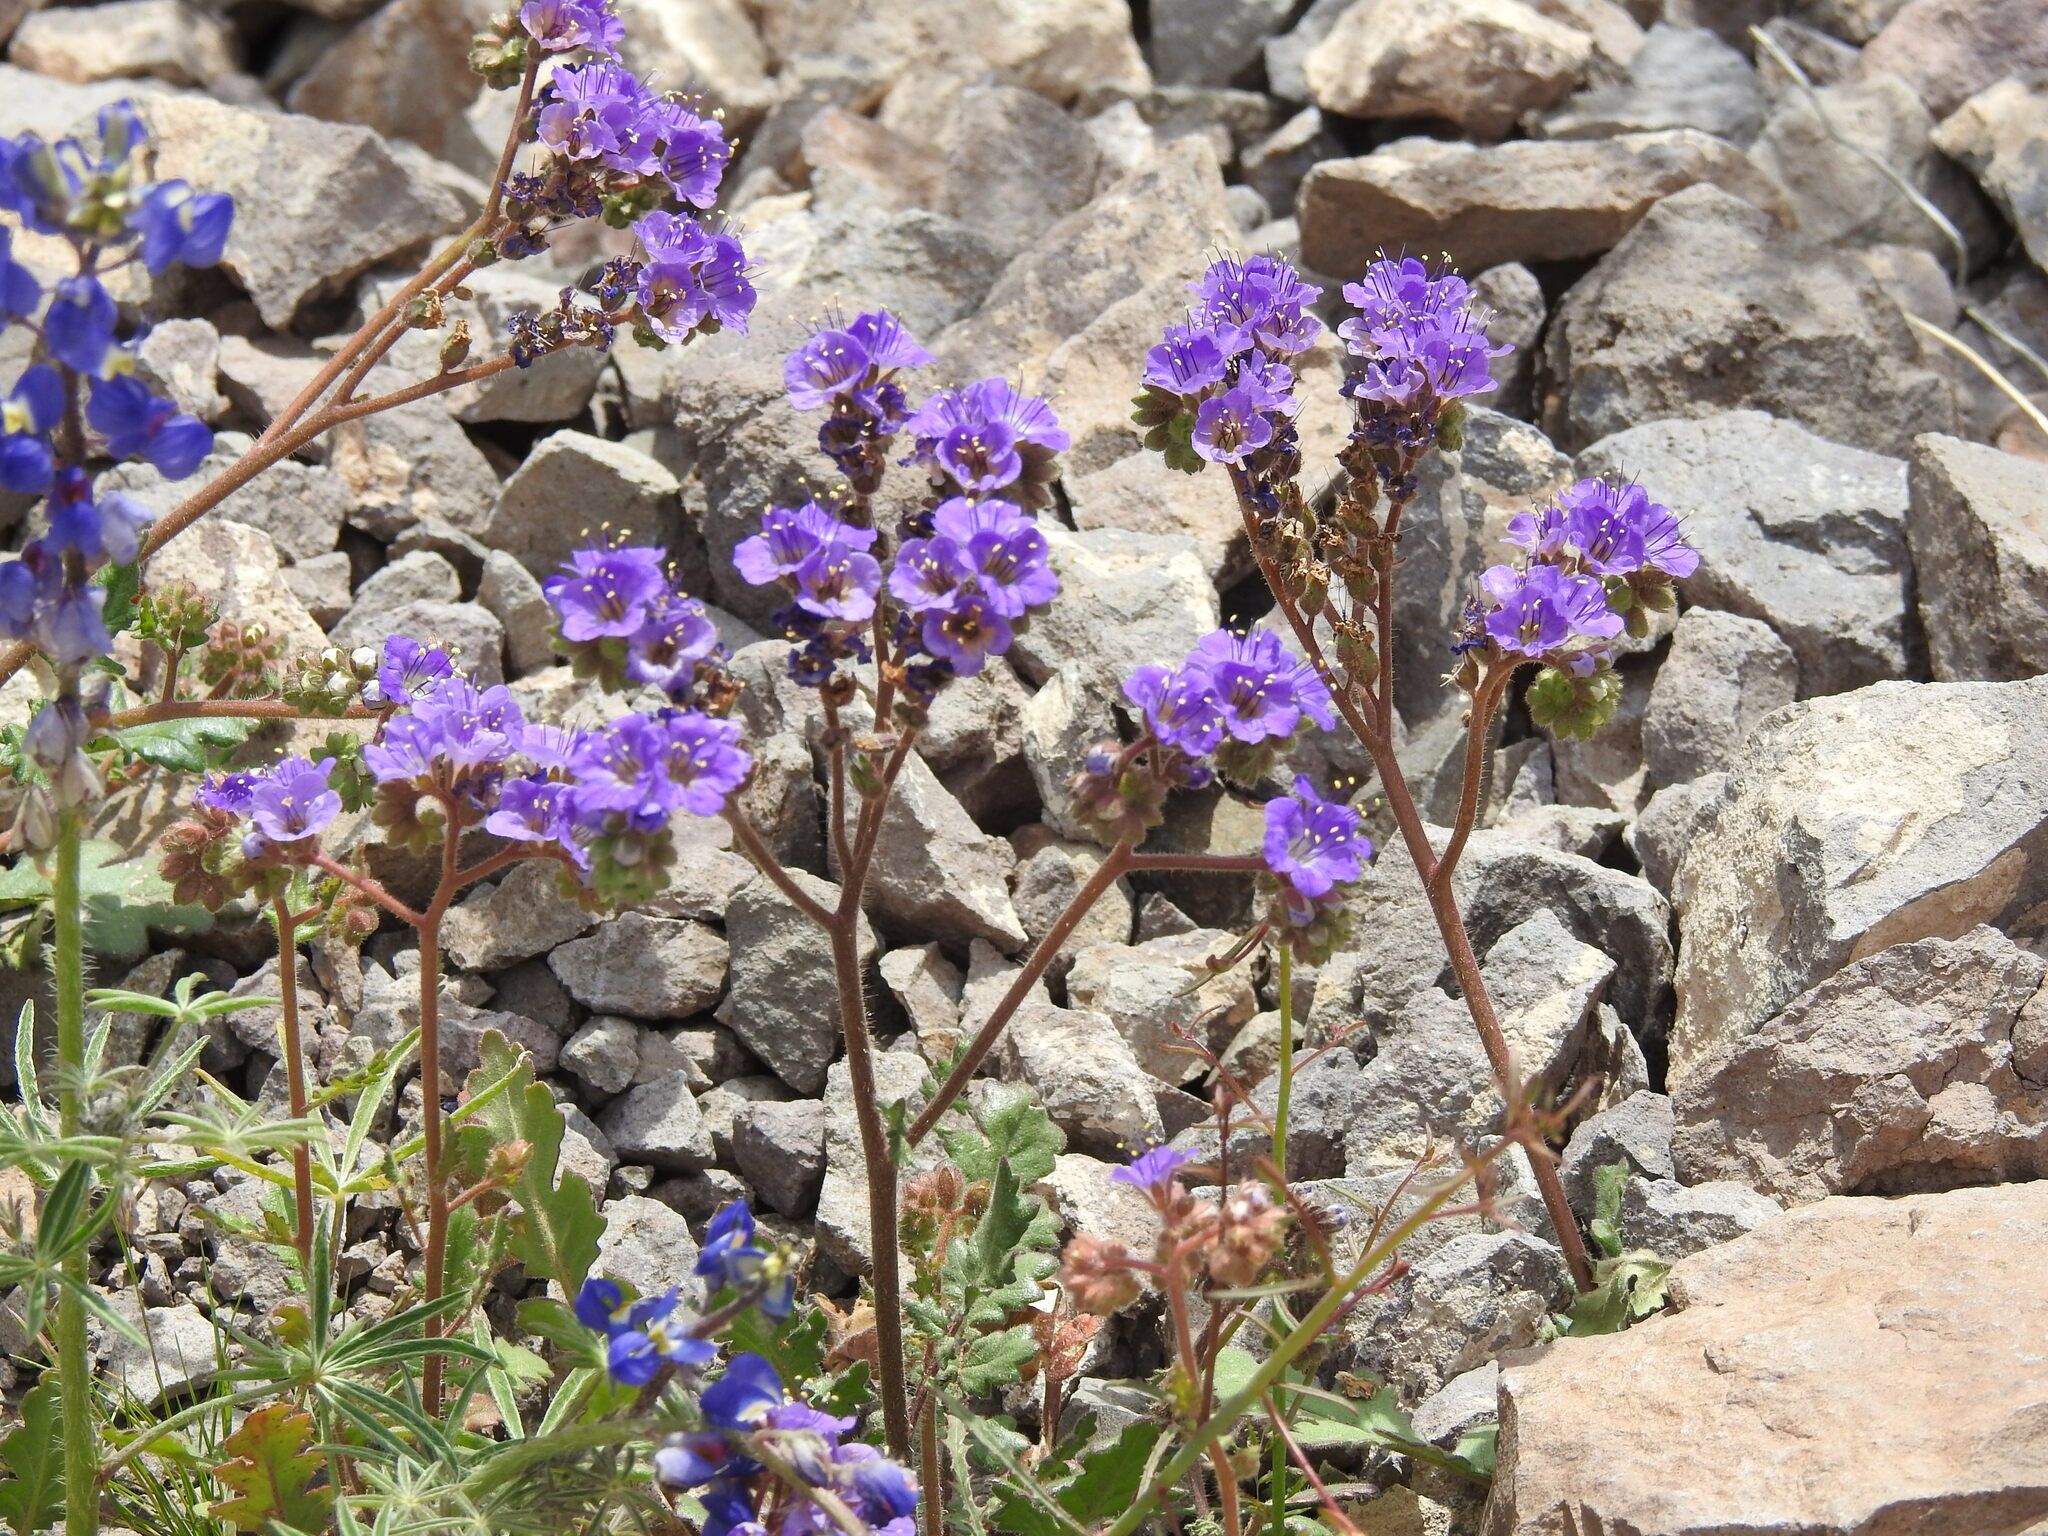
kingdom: Plantae
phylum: Tracheophyta
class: Magnoliopsida
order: Boraginales
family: Hydrophyllaceae
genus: Phacelia
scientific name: Phacelia crenulata
